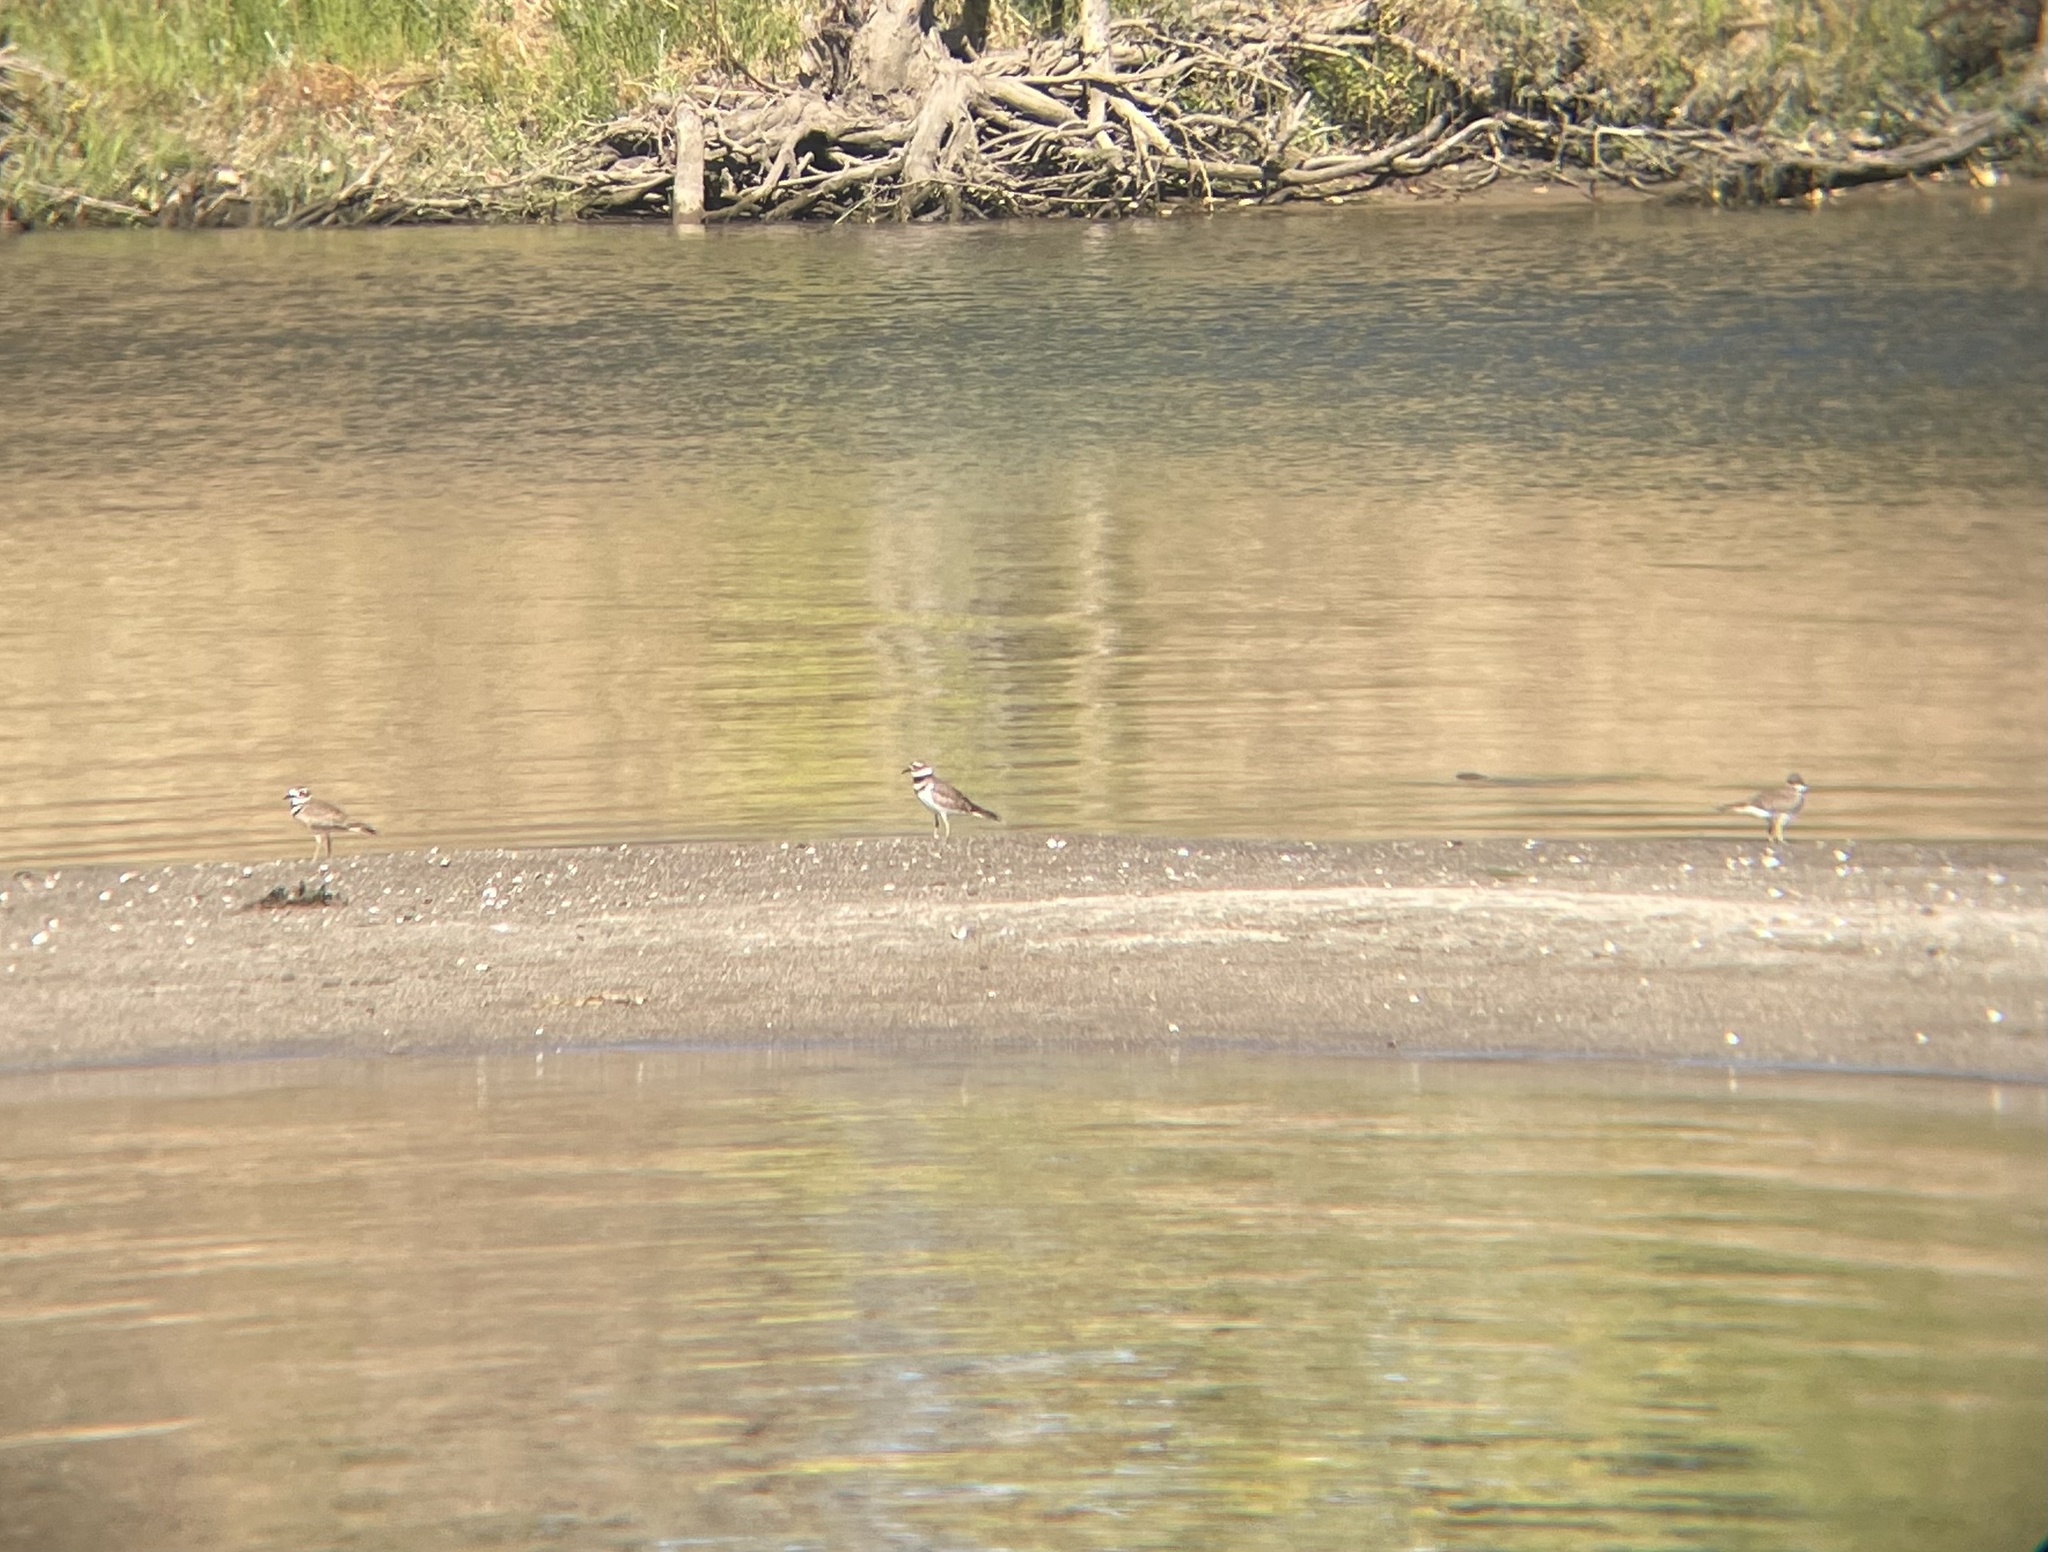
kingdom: Animalia
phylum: Chordata
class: Aves
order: Charadriiformes
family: Charadriidae
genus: Charadrius
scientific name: Charadrius vociferus
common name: Killdeer
